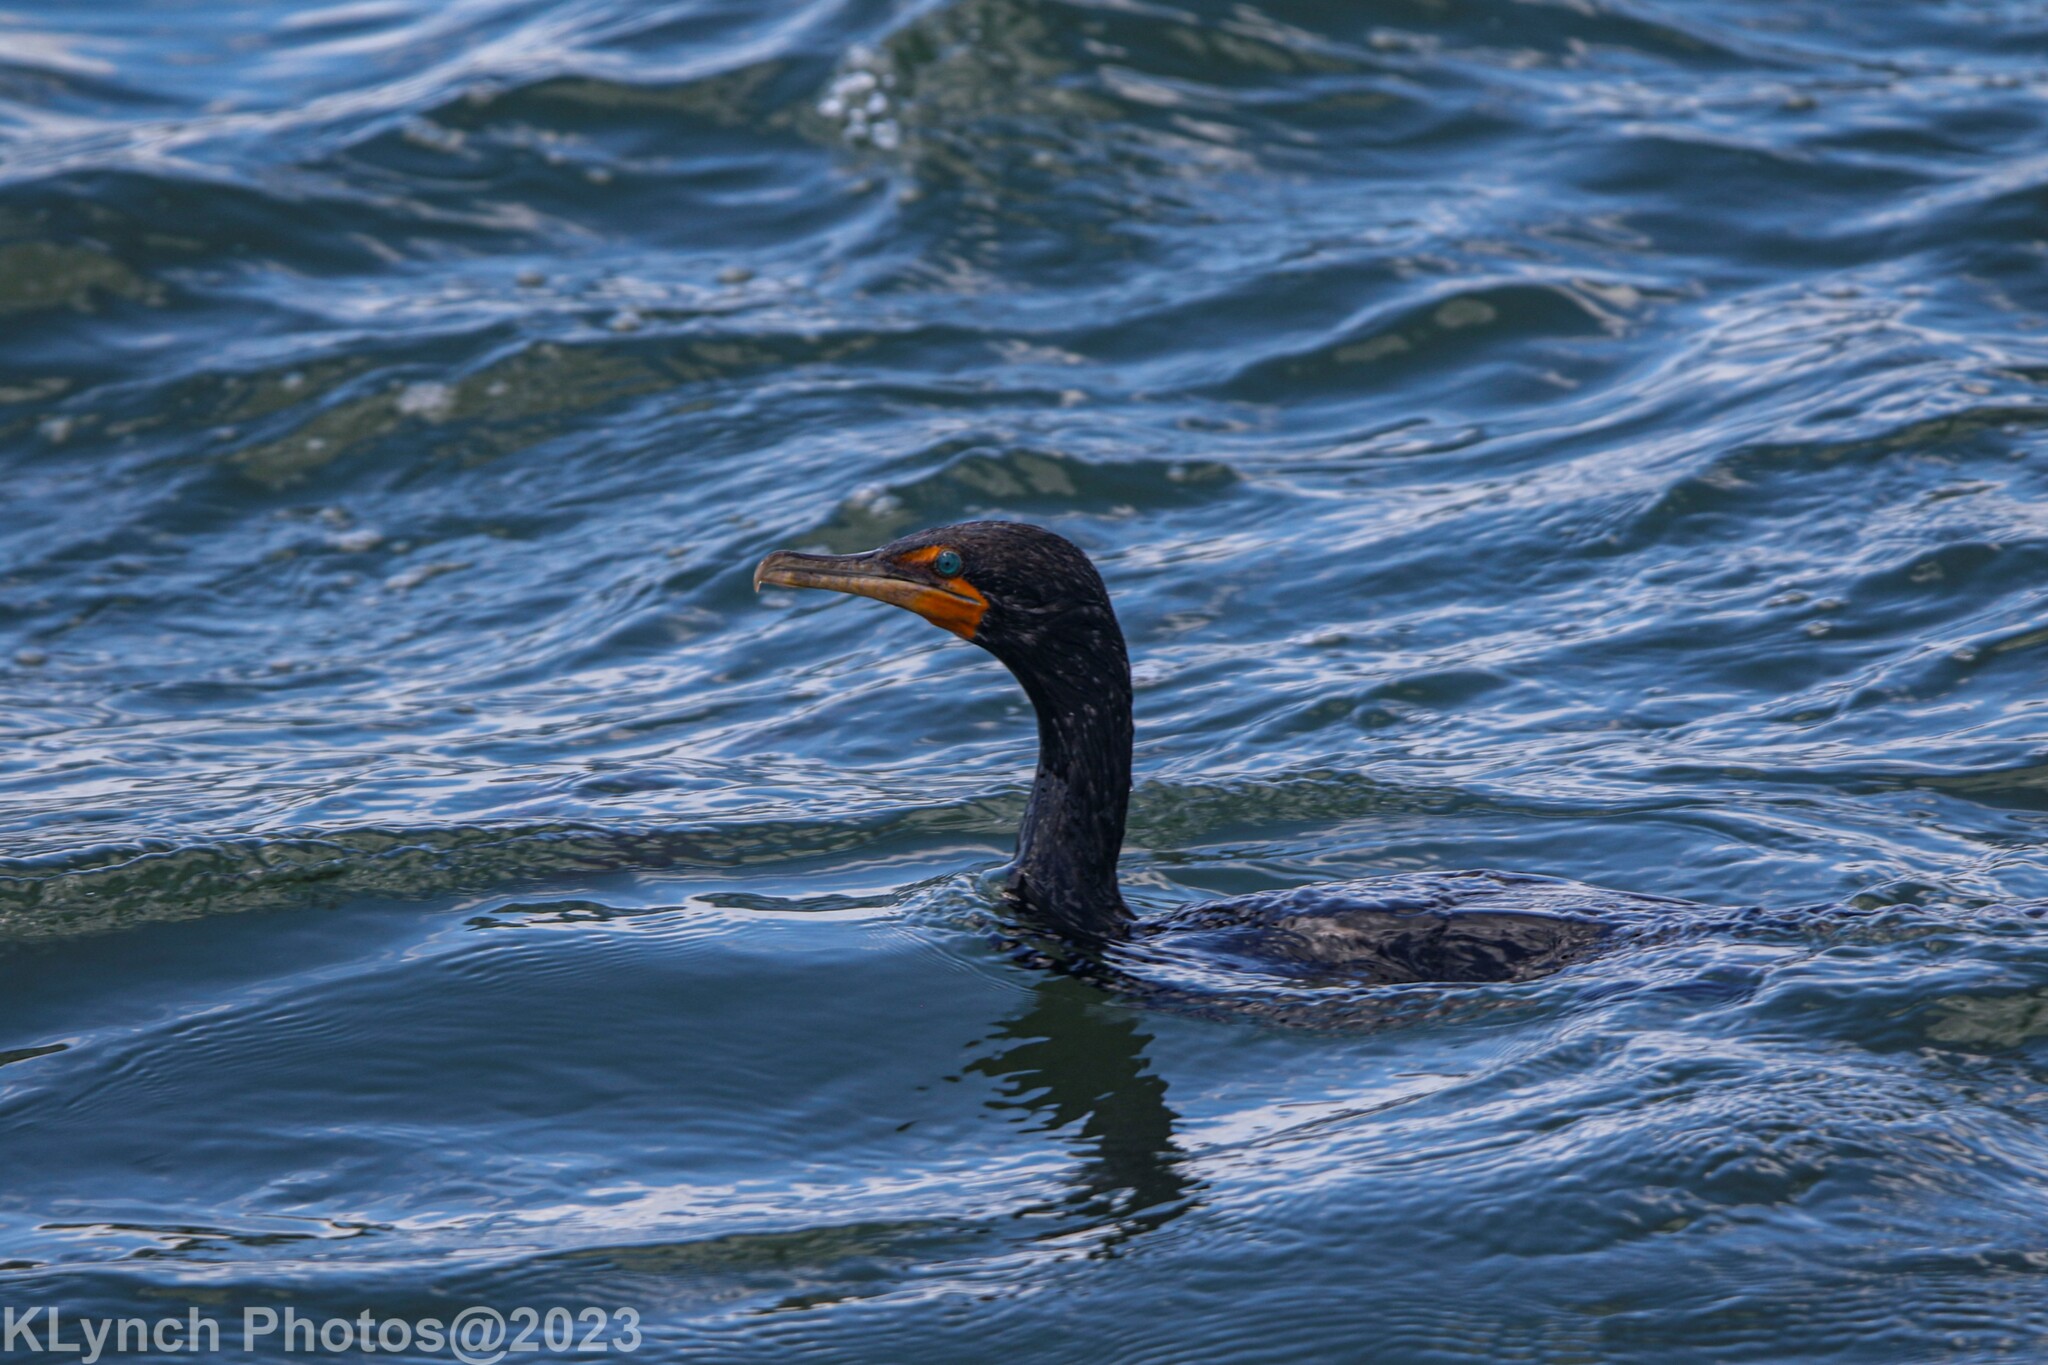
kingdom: Animalia
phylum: Chordata
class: Aves
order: Suliformes
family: Phalacrocoracidae
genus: Phalacrocorax
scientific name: Phalacrocorax auritus
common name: Double-crested cormorant
